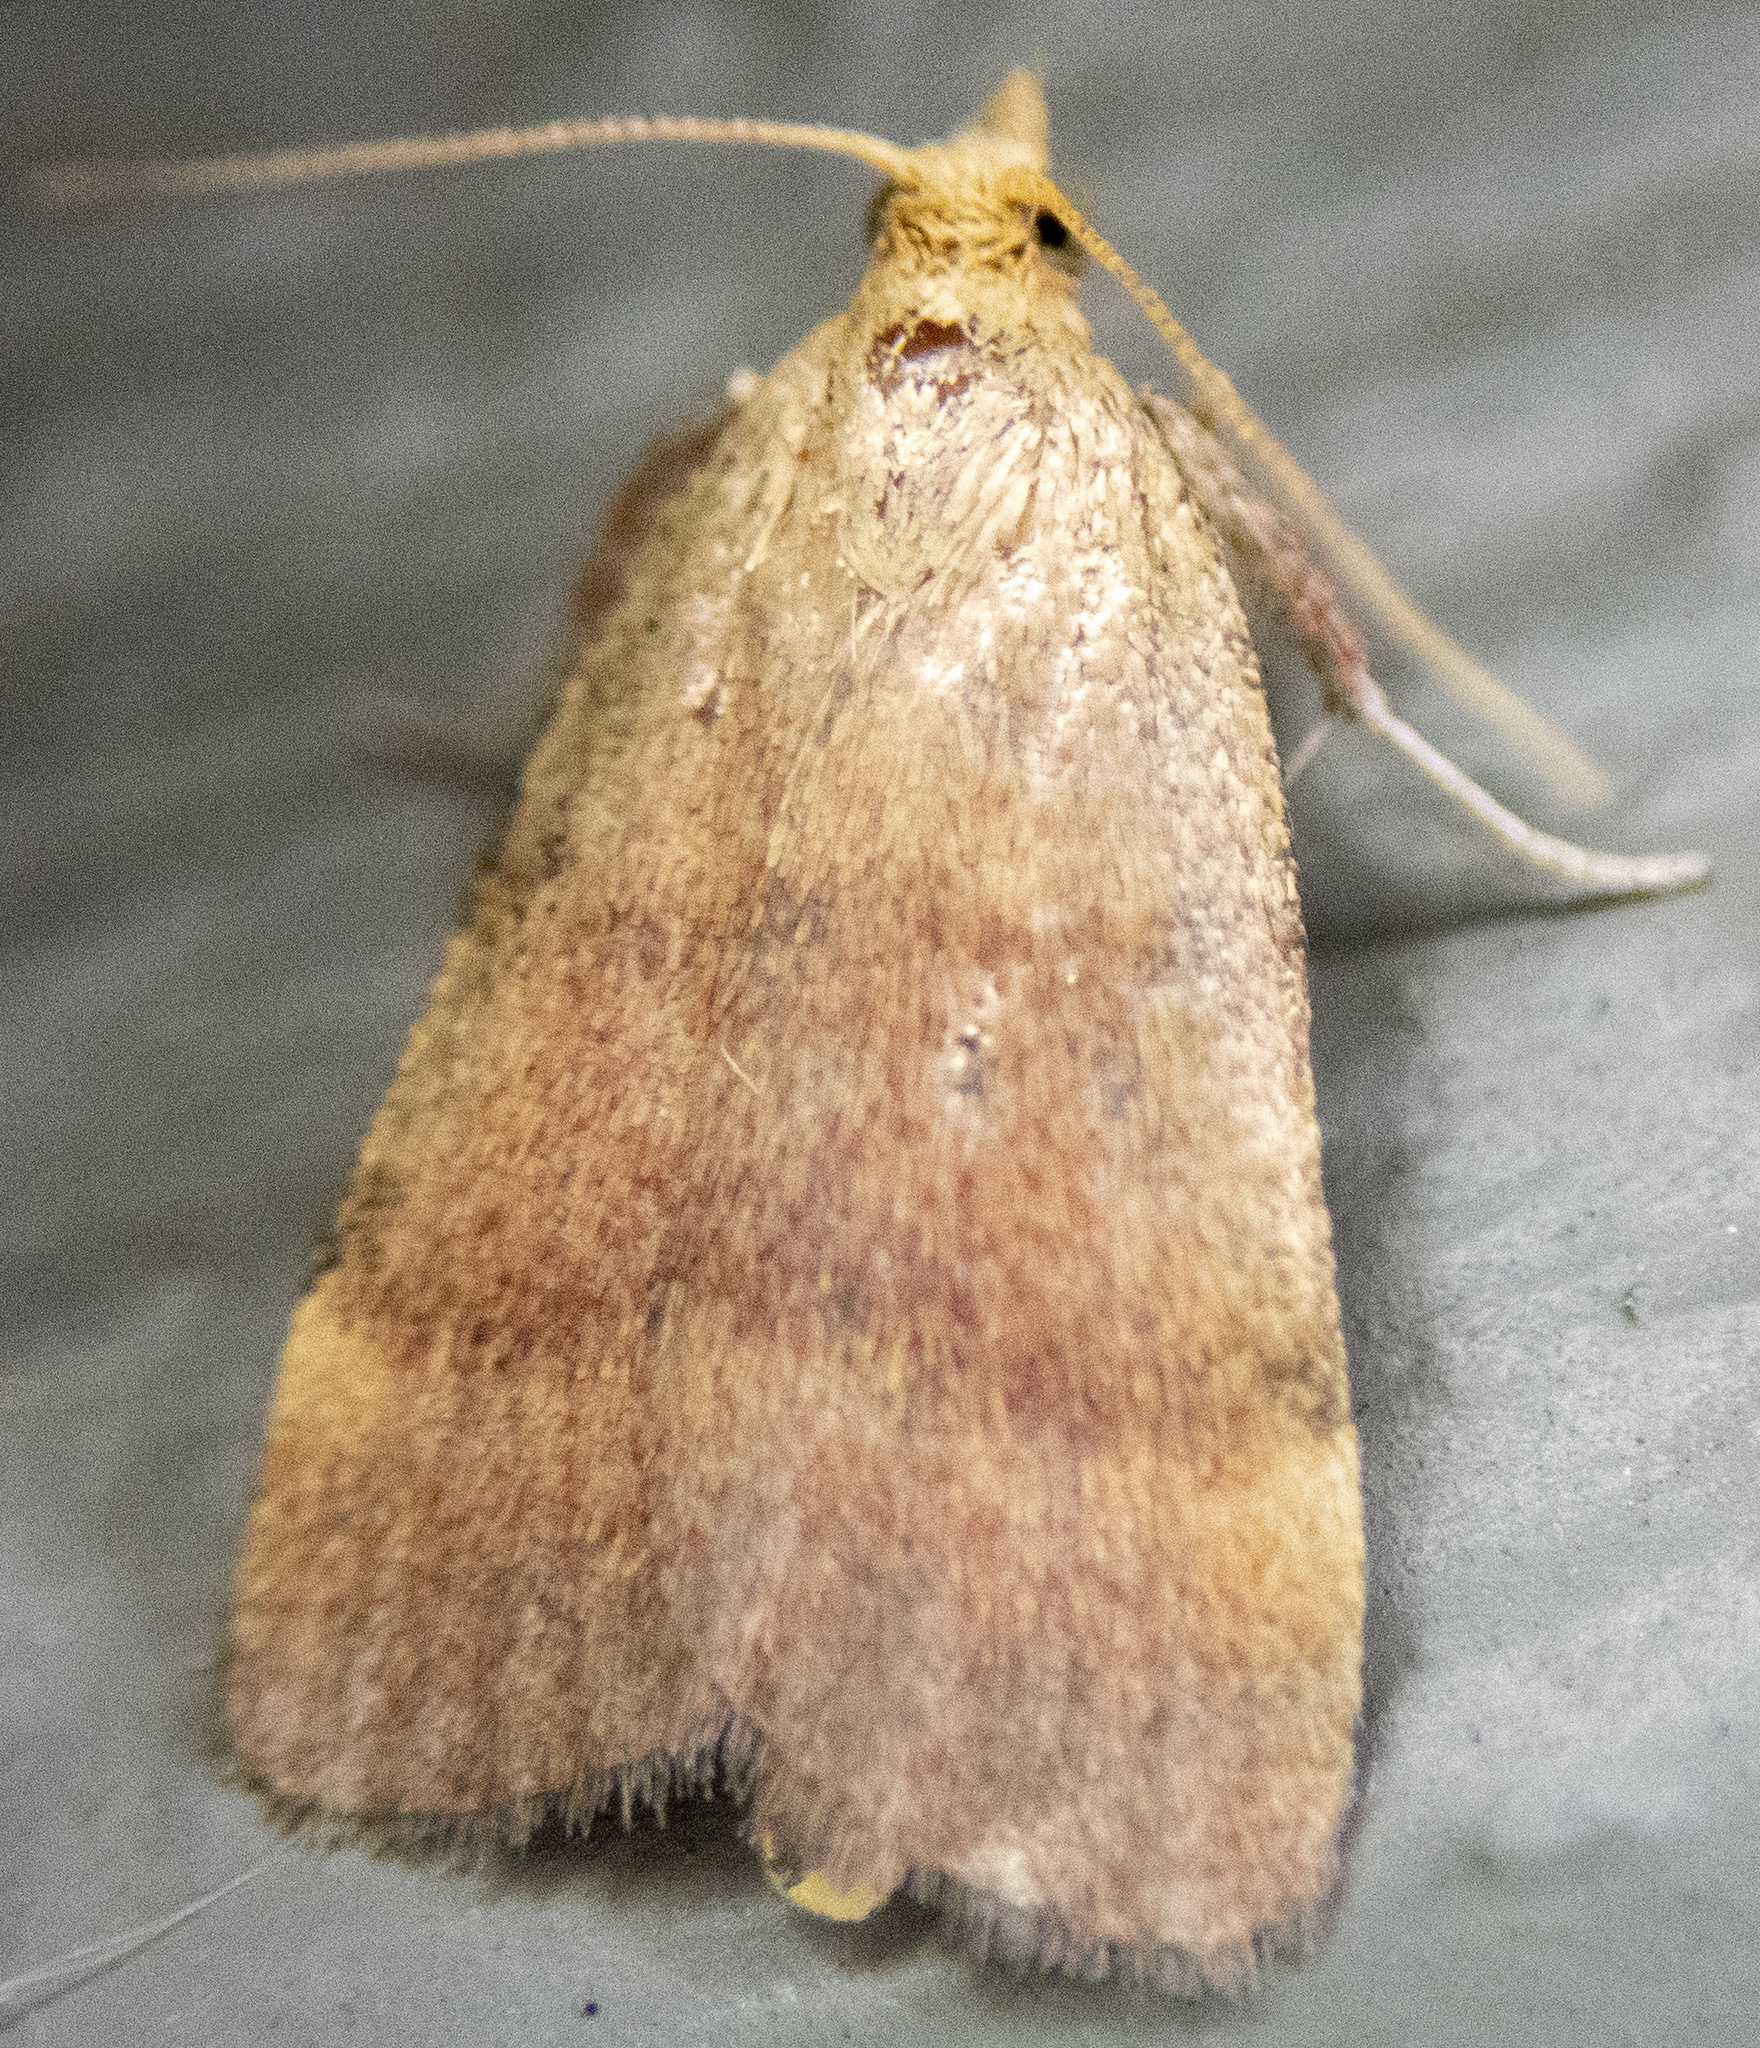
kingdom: Animalia
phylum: Arthropoda
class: Insecta
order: Lepidoptera
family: Pyralidae
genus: Condylolomia
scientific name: Condylolomia participialis
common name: Drab condylolomia moth
